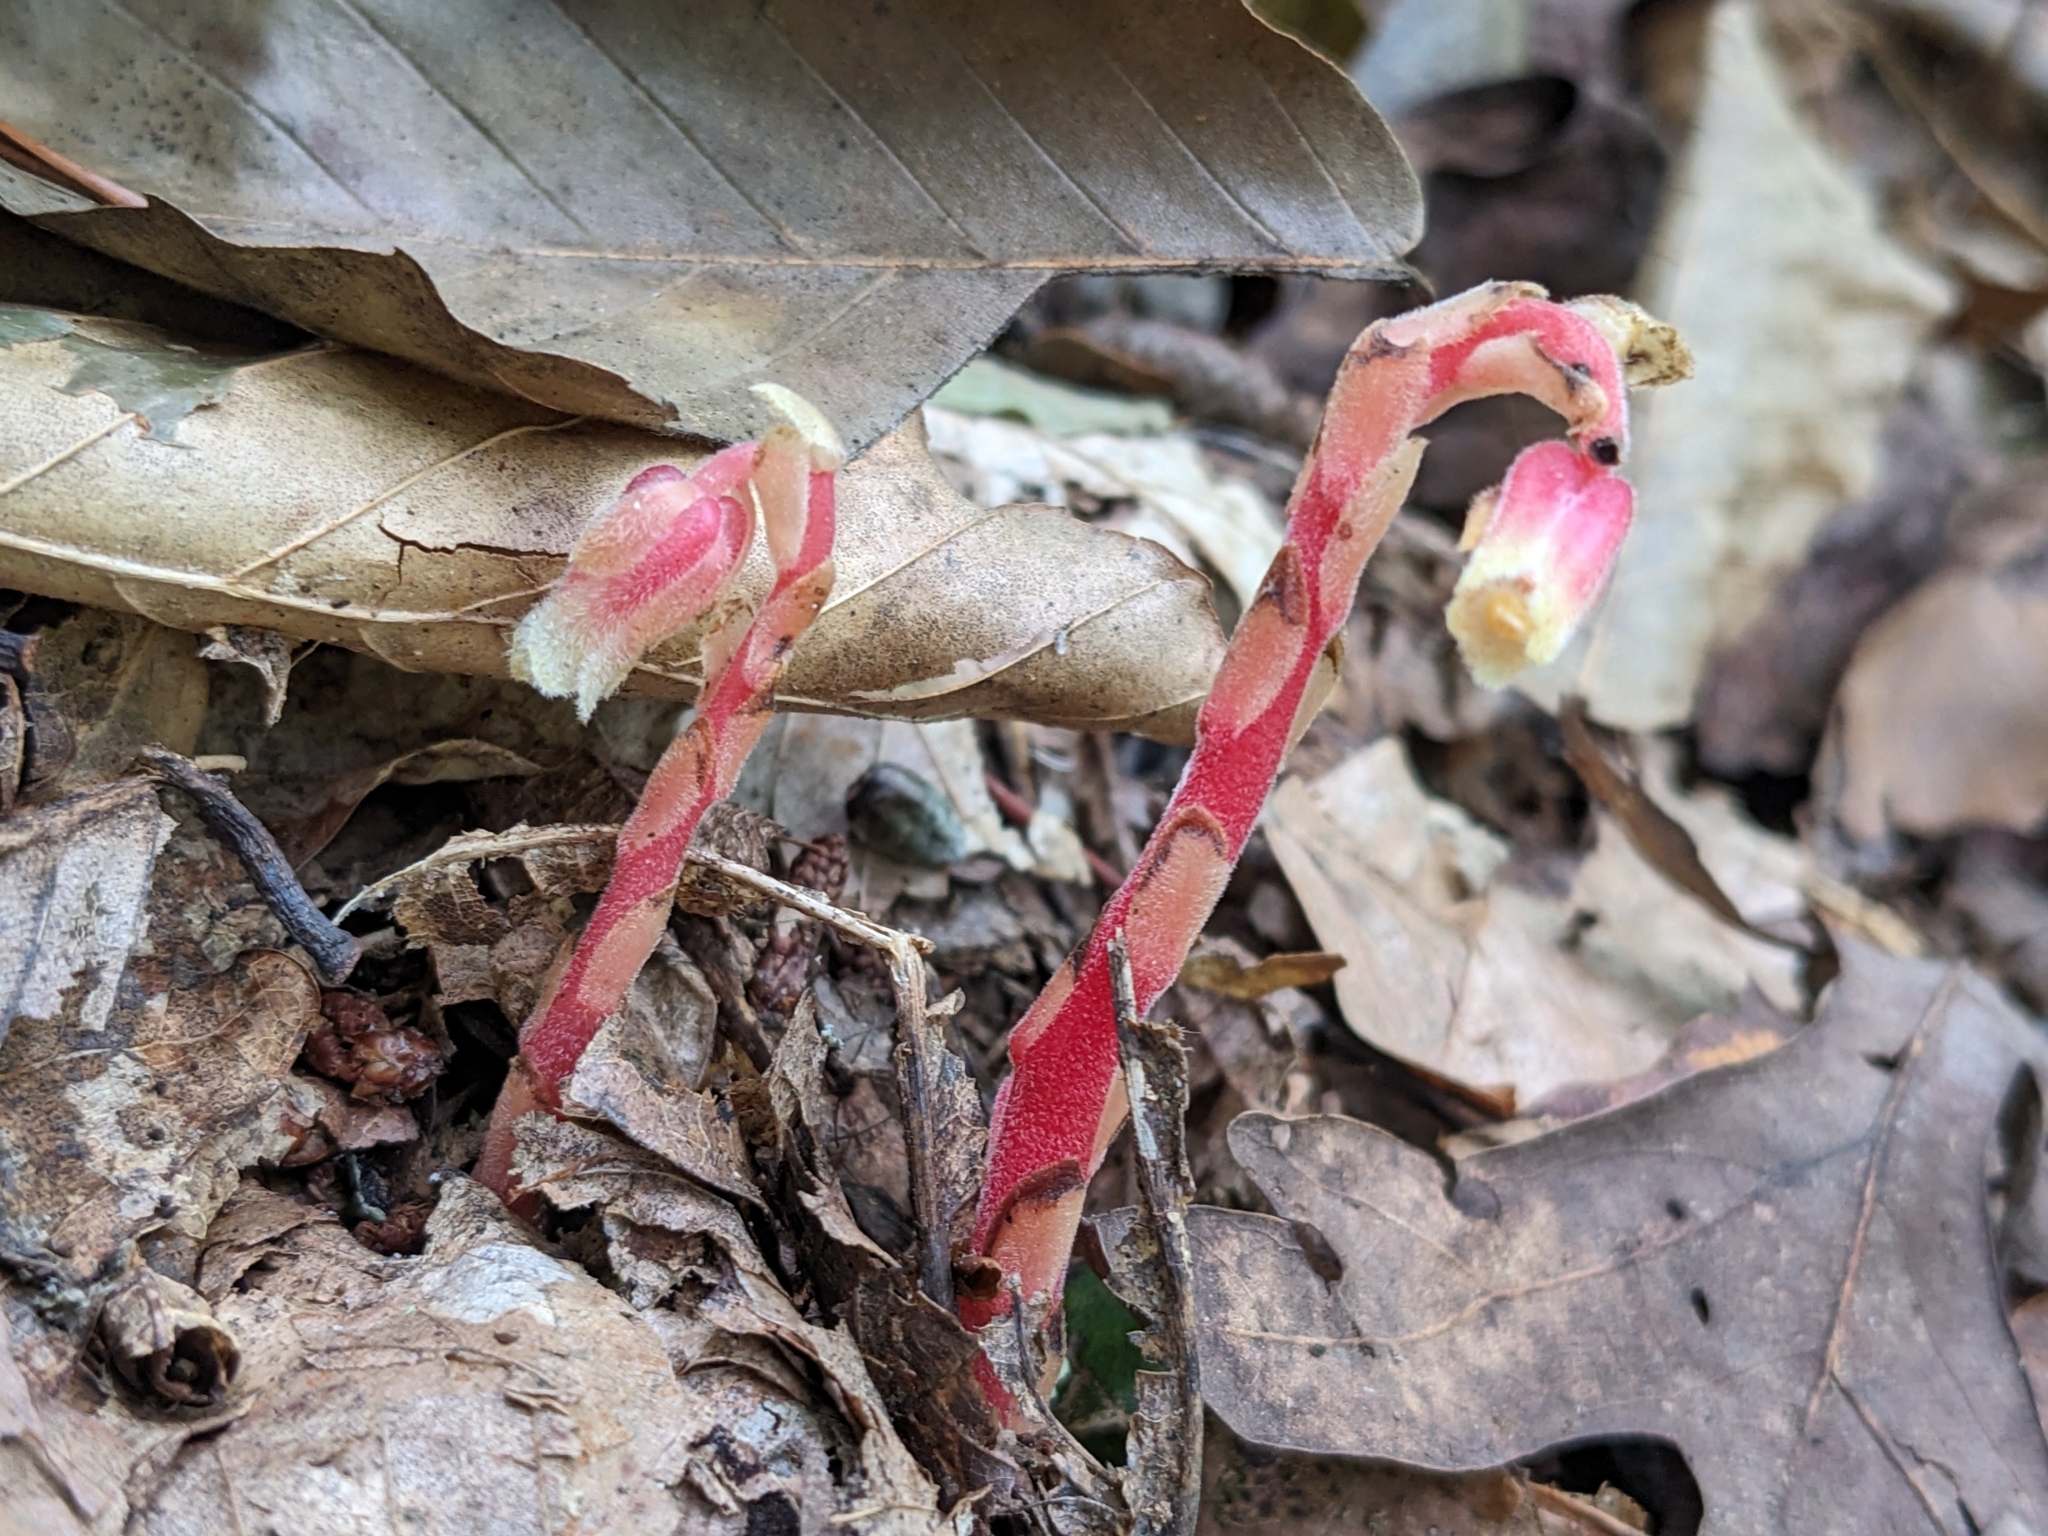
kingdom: Plantae
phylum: Tracheophyta
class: Magnoliopsida
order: Ericales
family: Ericaceae
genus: Hypopitys
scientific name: Hypopitys monotropa
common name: Yellow bird's-nest
